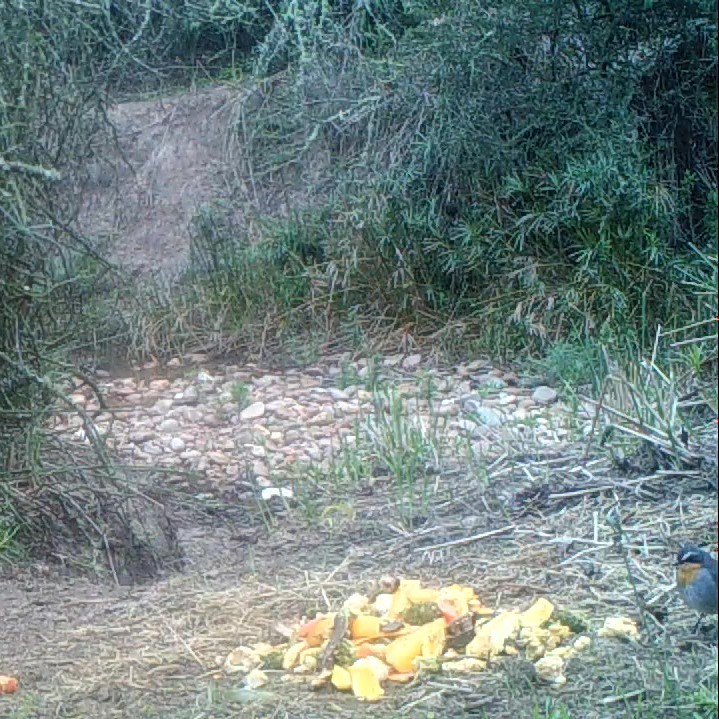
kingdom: Animalia
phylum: Chordata
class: Aves
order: Passeriformes
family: Muscicapidae
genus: Cossypha
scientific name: Cossypha caffra
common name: Cape robin-chat
